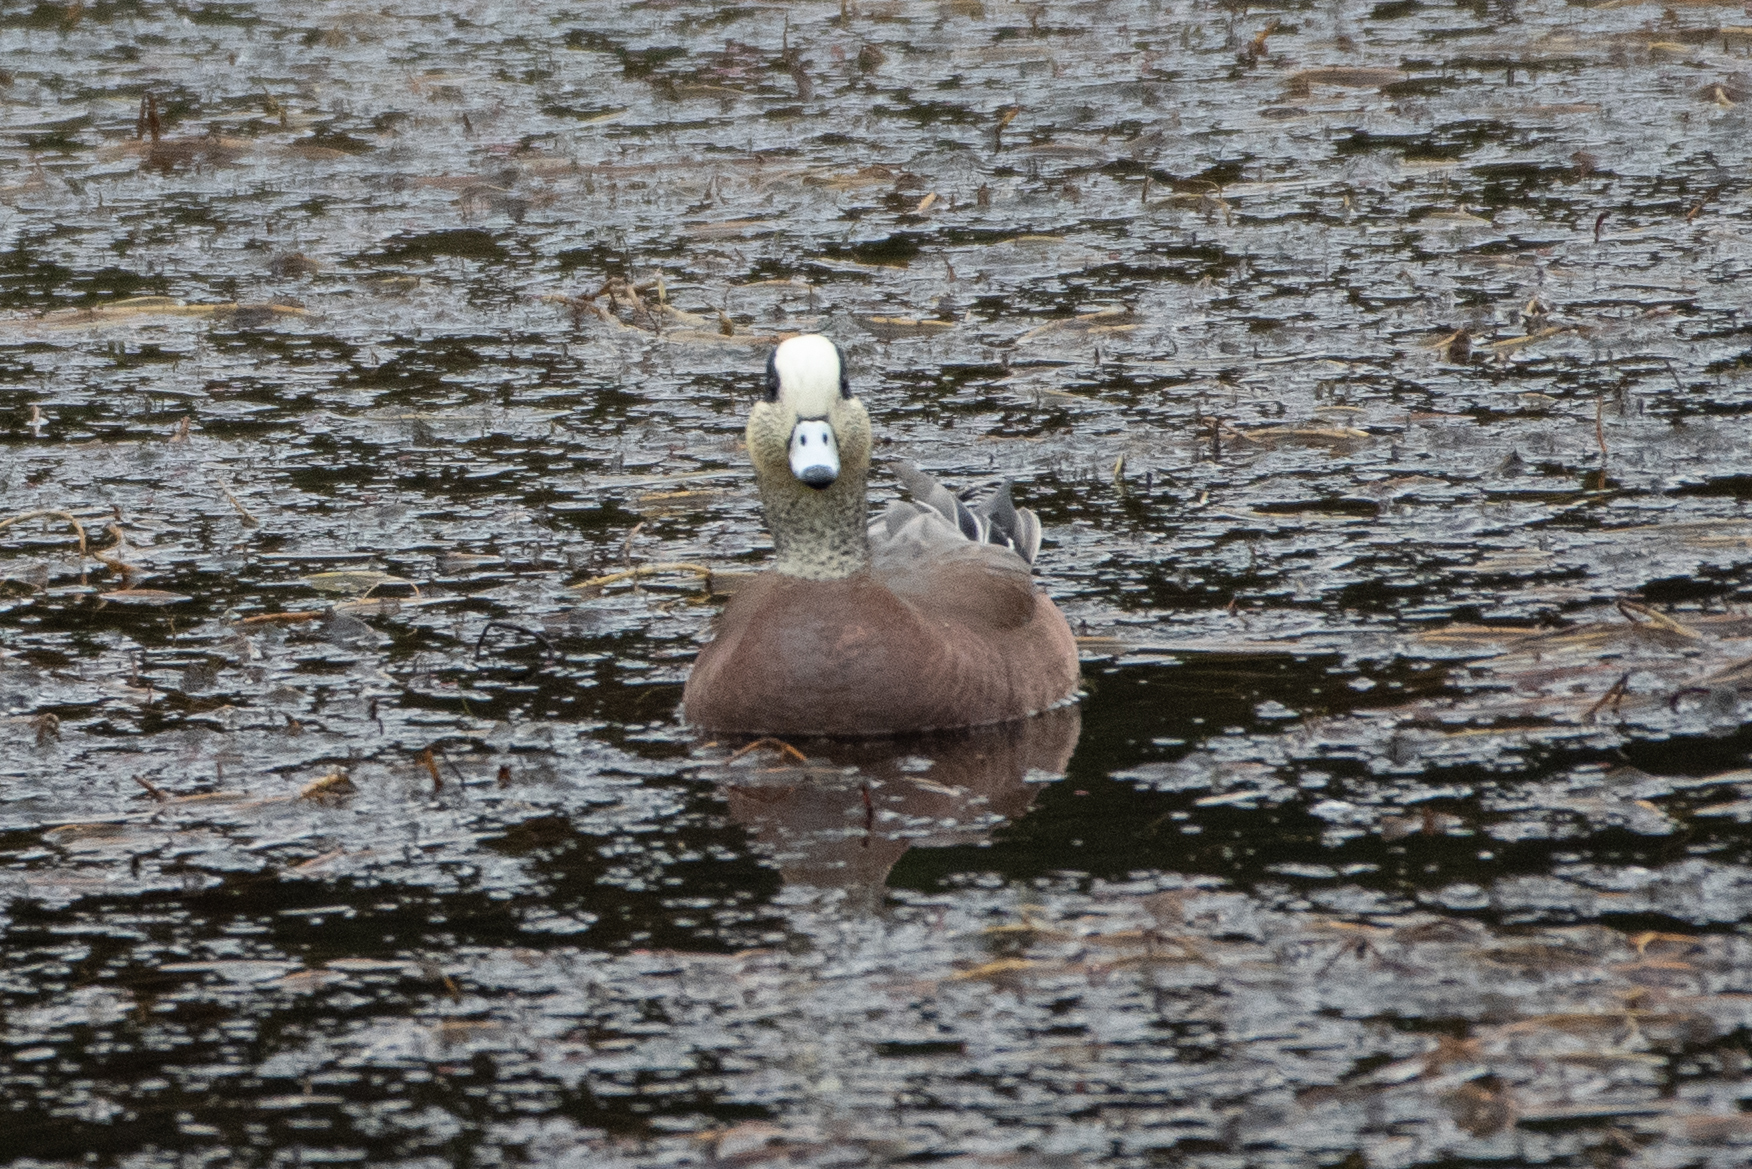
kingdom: Animalia
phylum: Chordata
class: Aves
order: Anseriformes
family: Anatidae
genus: Mareca
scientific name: Mareca americana
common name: American wigeon
